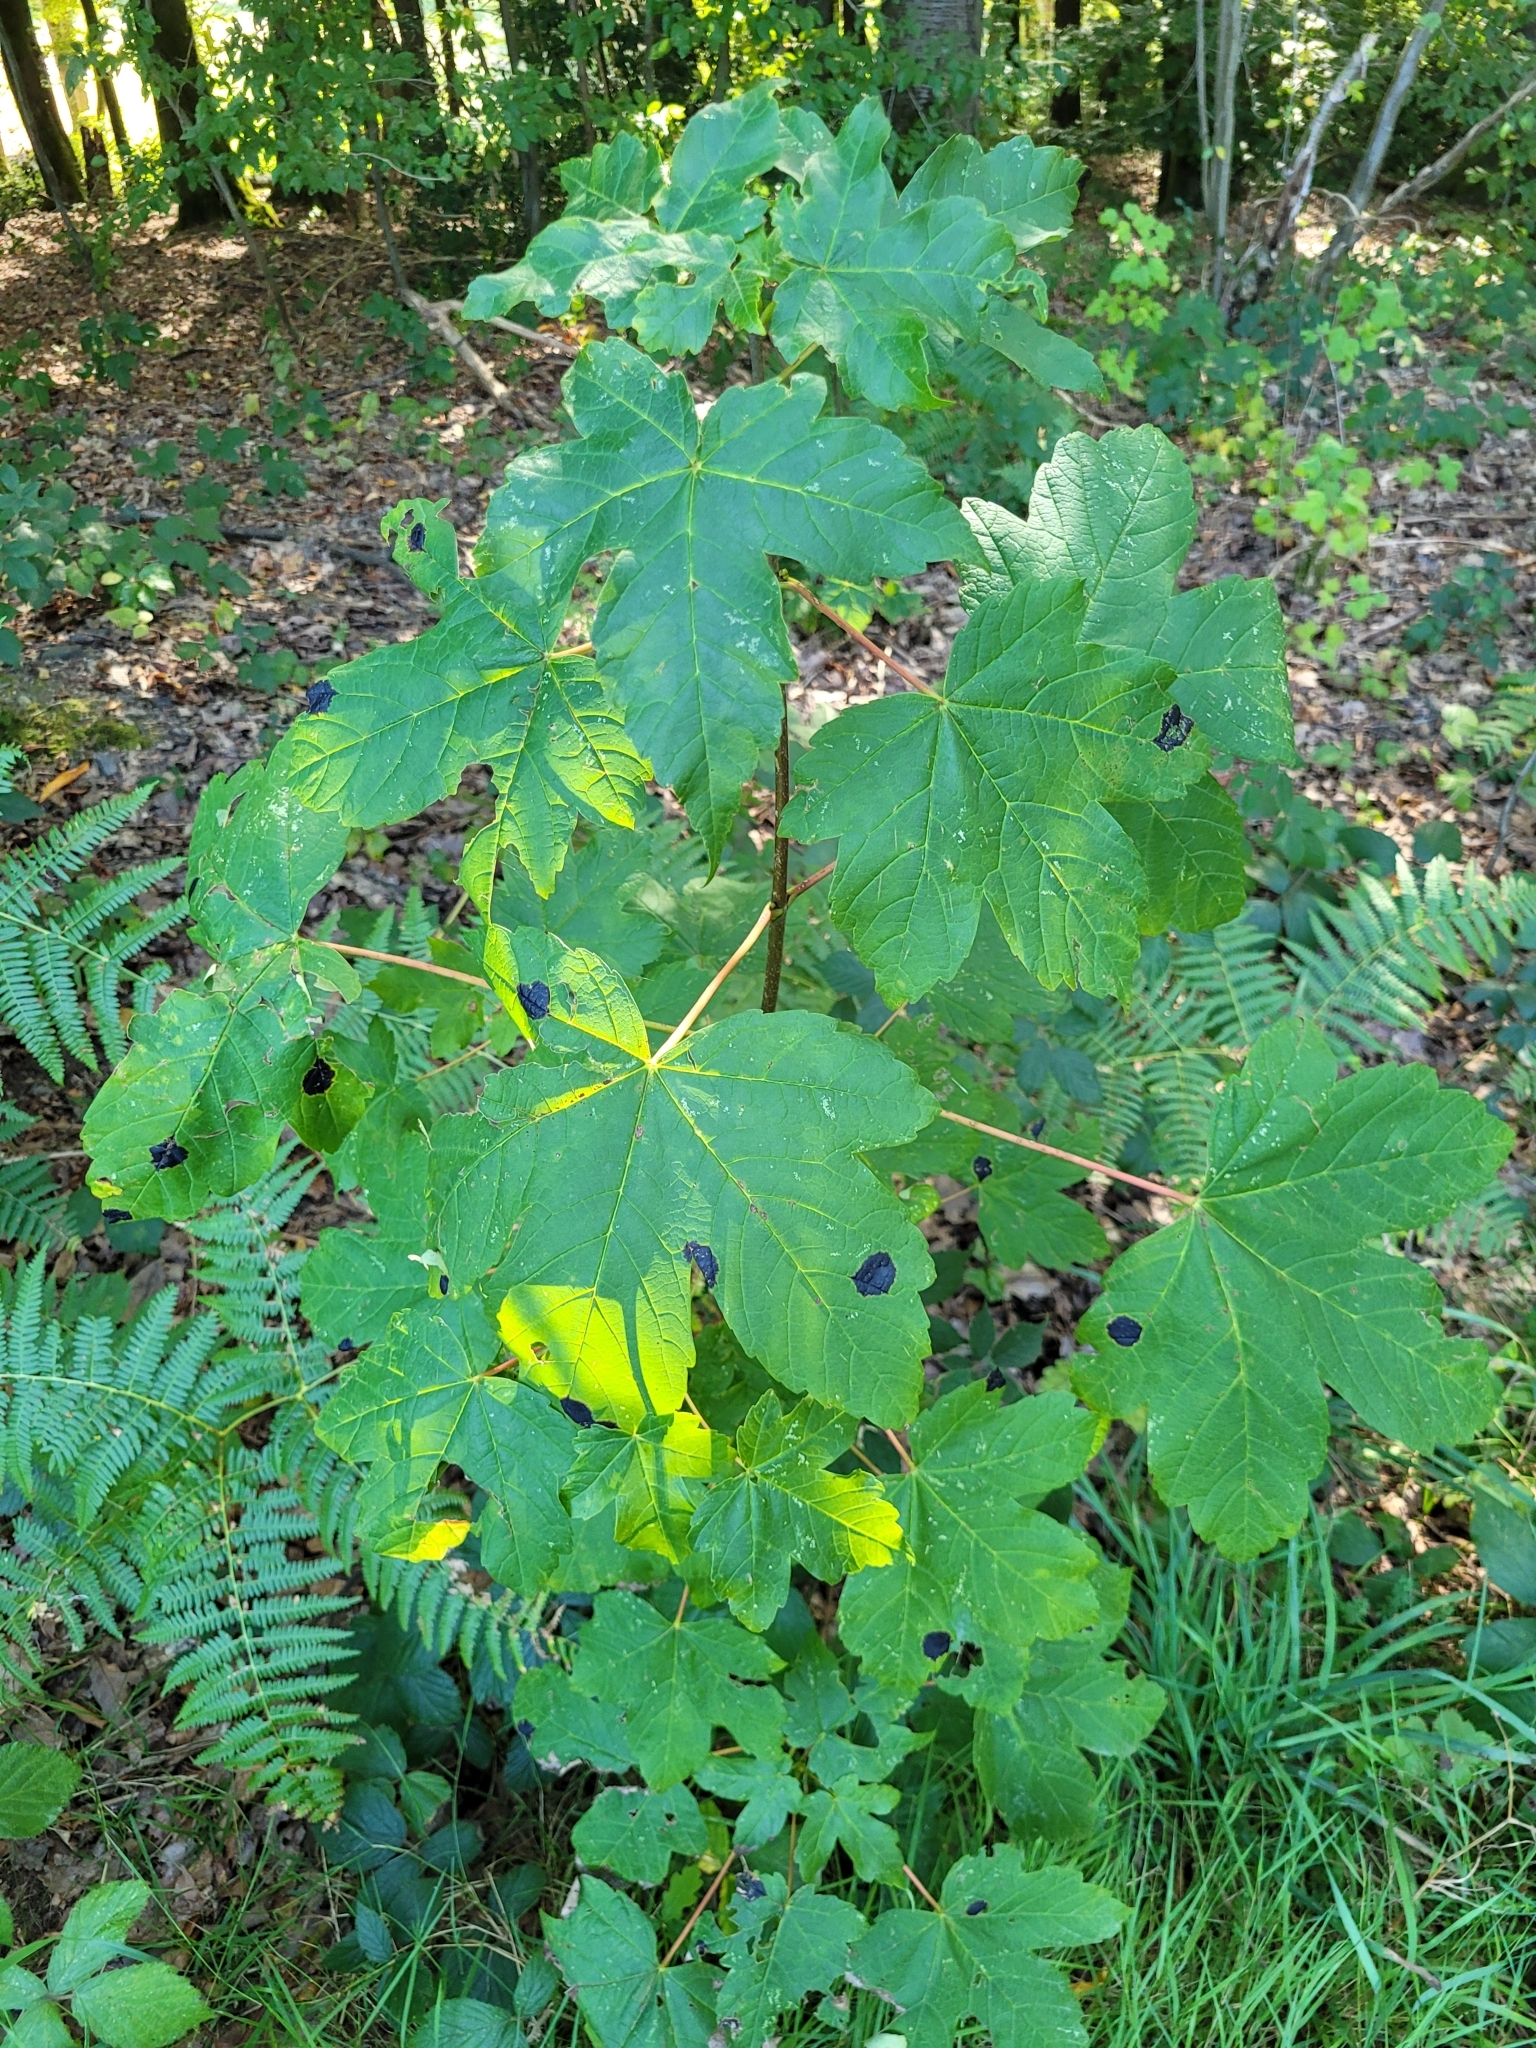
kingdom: Fungi
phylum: Ascomycota
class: Leotiomycetes
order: Rhytismatales
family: Rhytismataceae
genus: Rhytisma
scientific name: Rhytisma acerinum
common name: European tar spot
